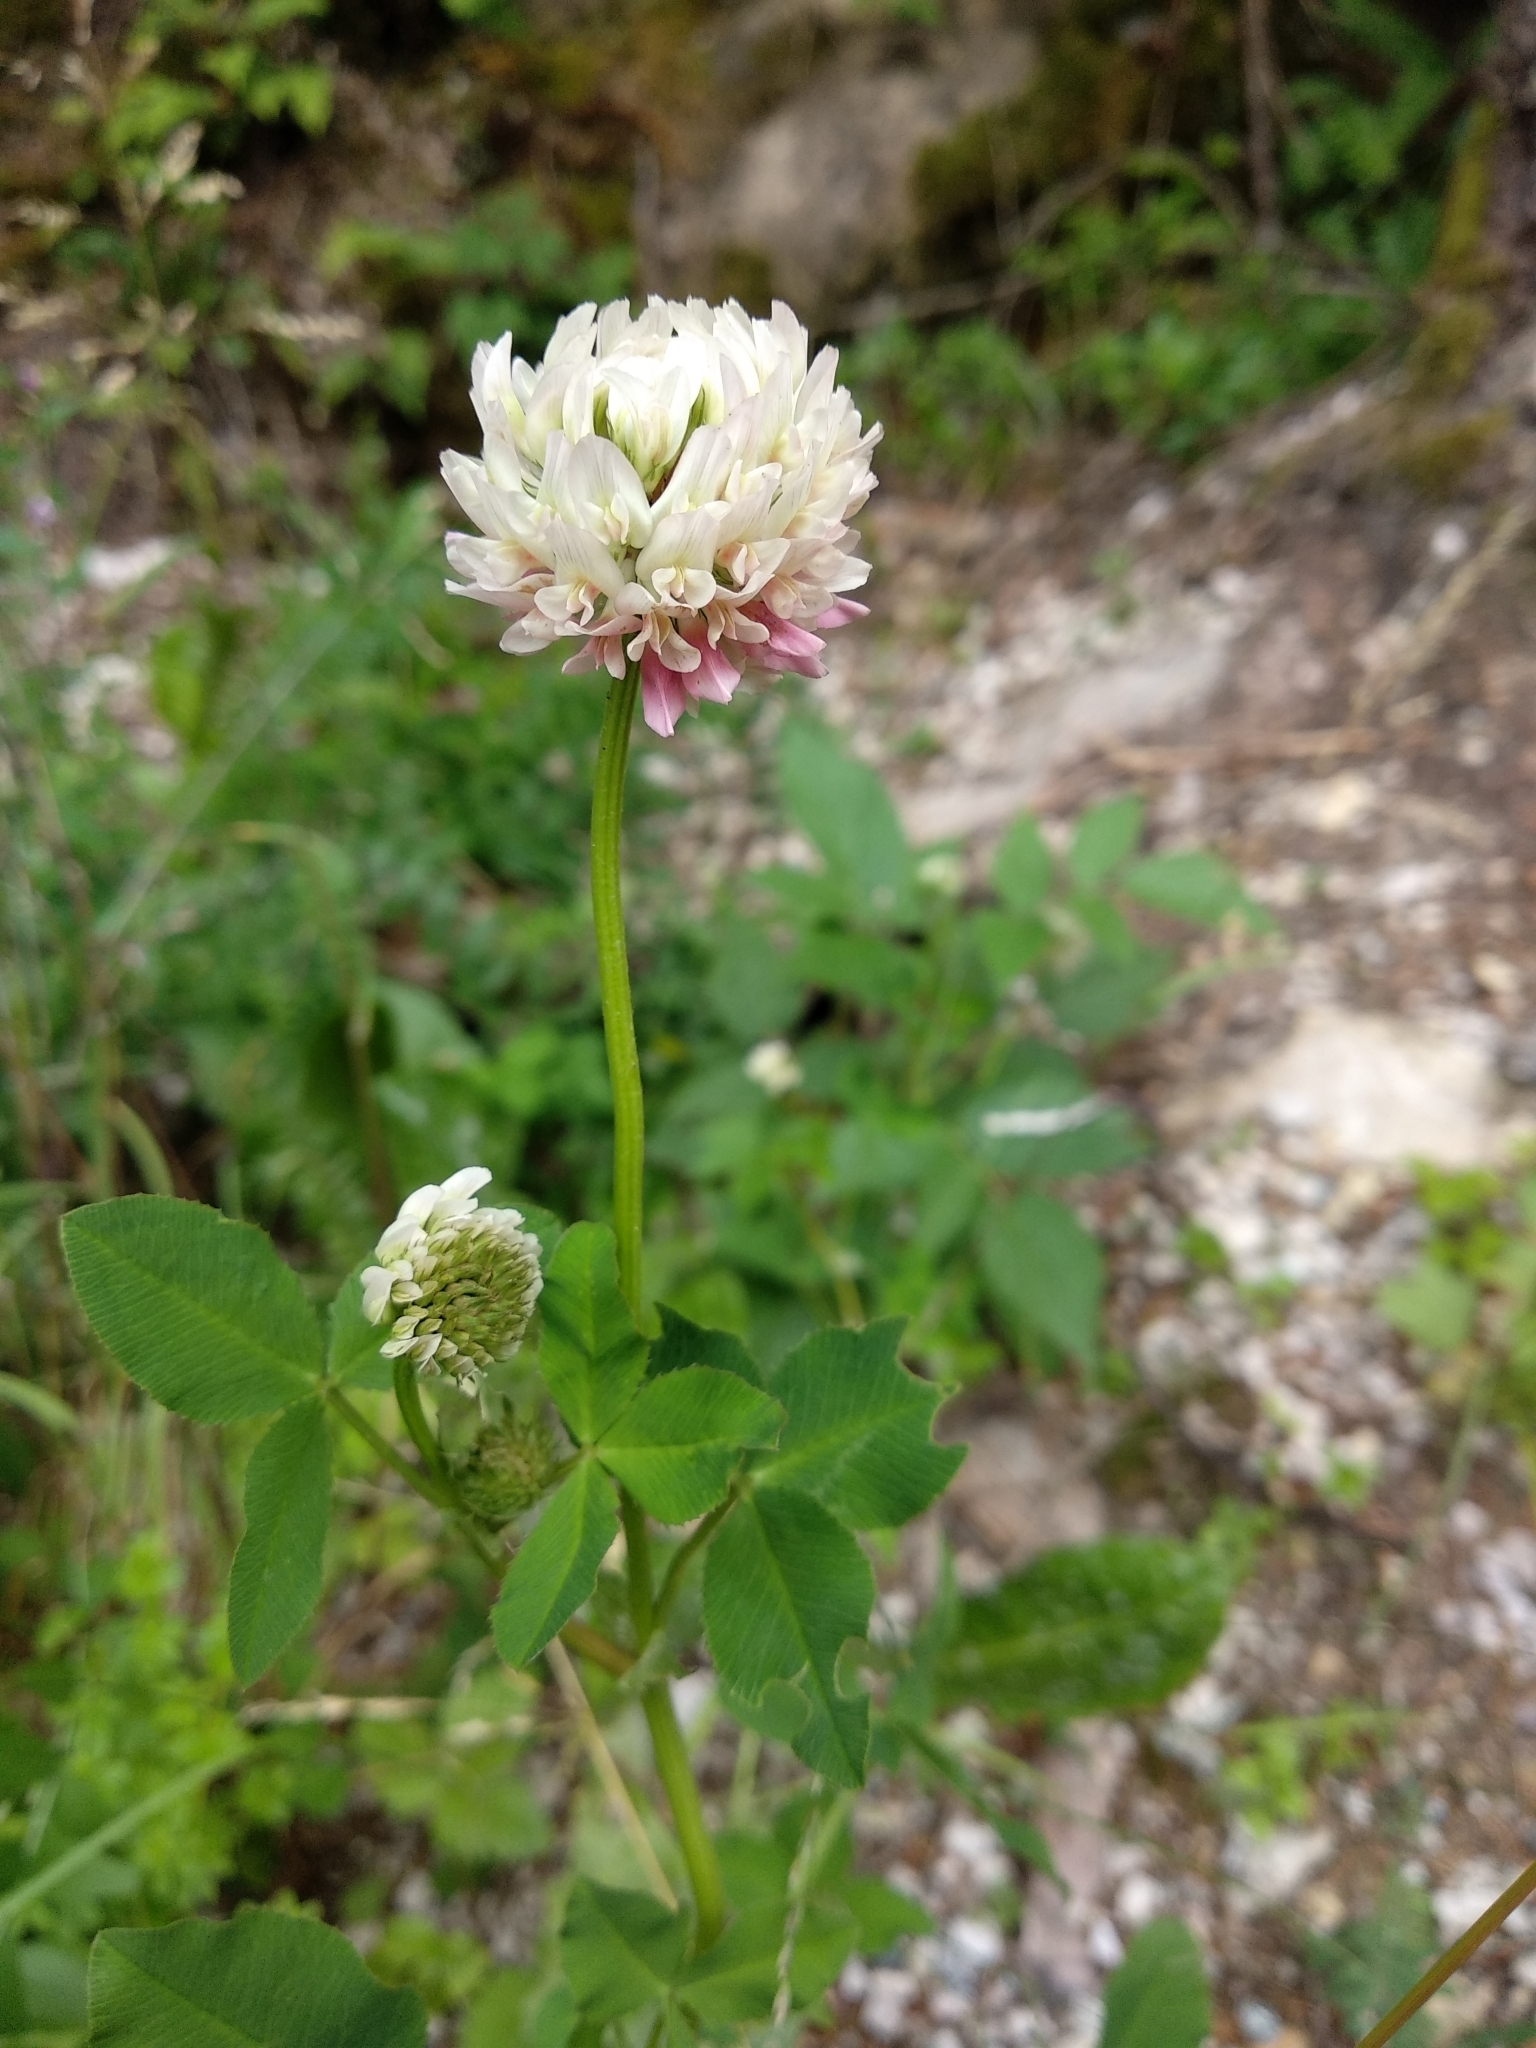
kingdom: Plantae
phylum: Tracheophyta
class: Magnoliopsida
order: Fabales
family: Fabaceae
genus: Trifolium
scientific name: Trifolium hybridum
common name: Alsike clover
